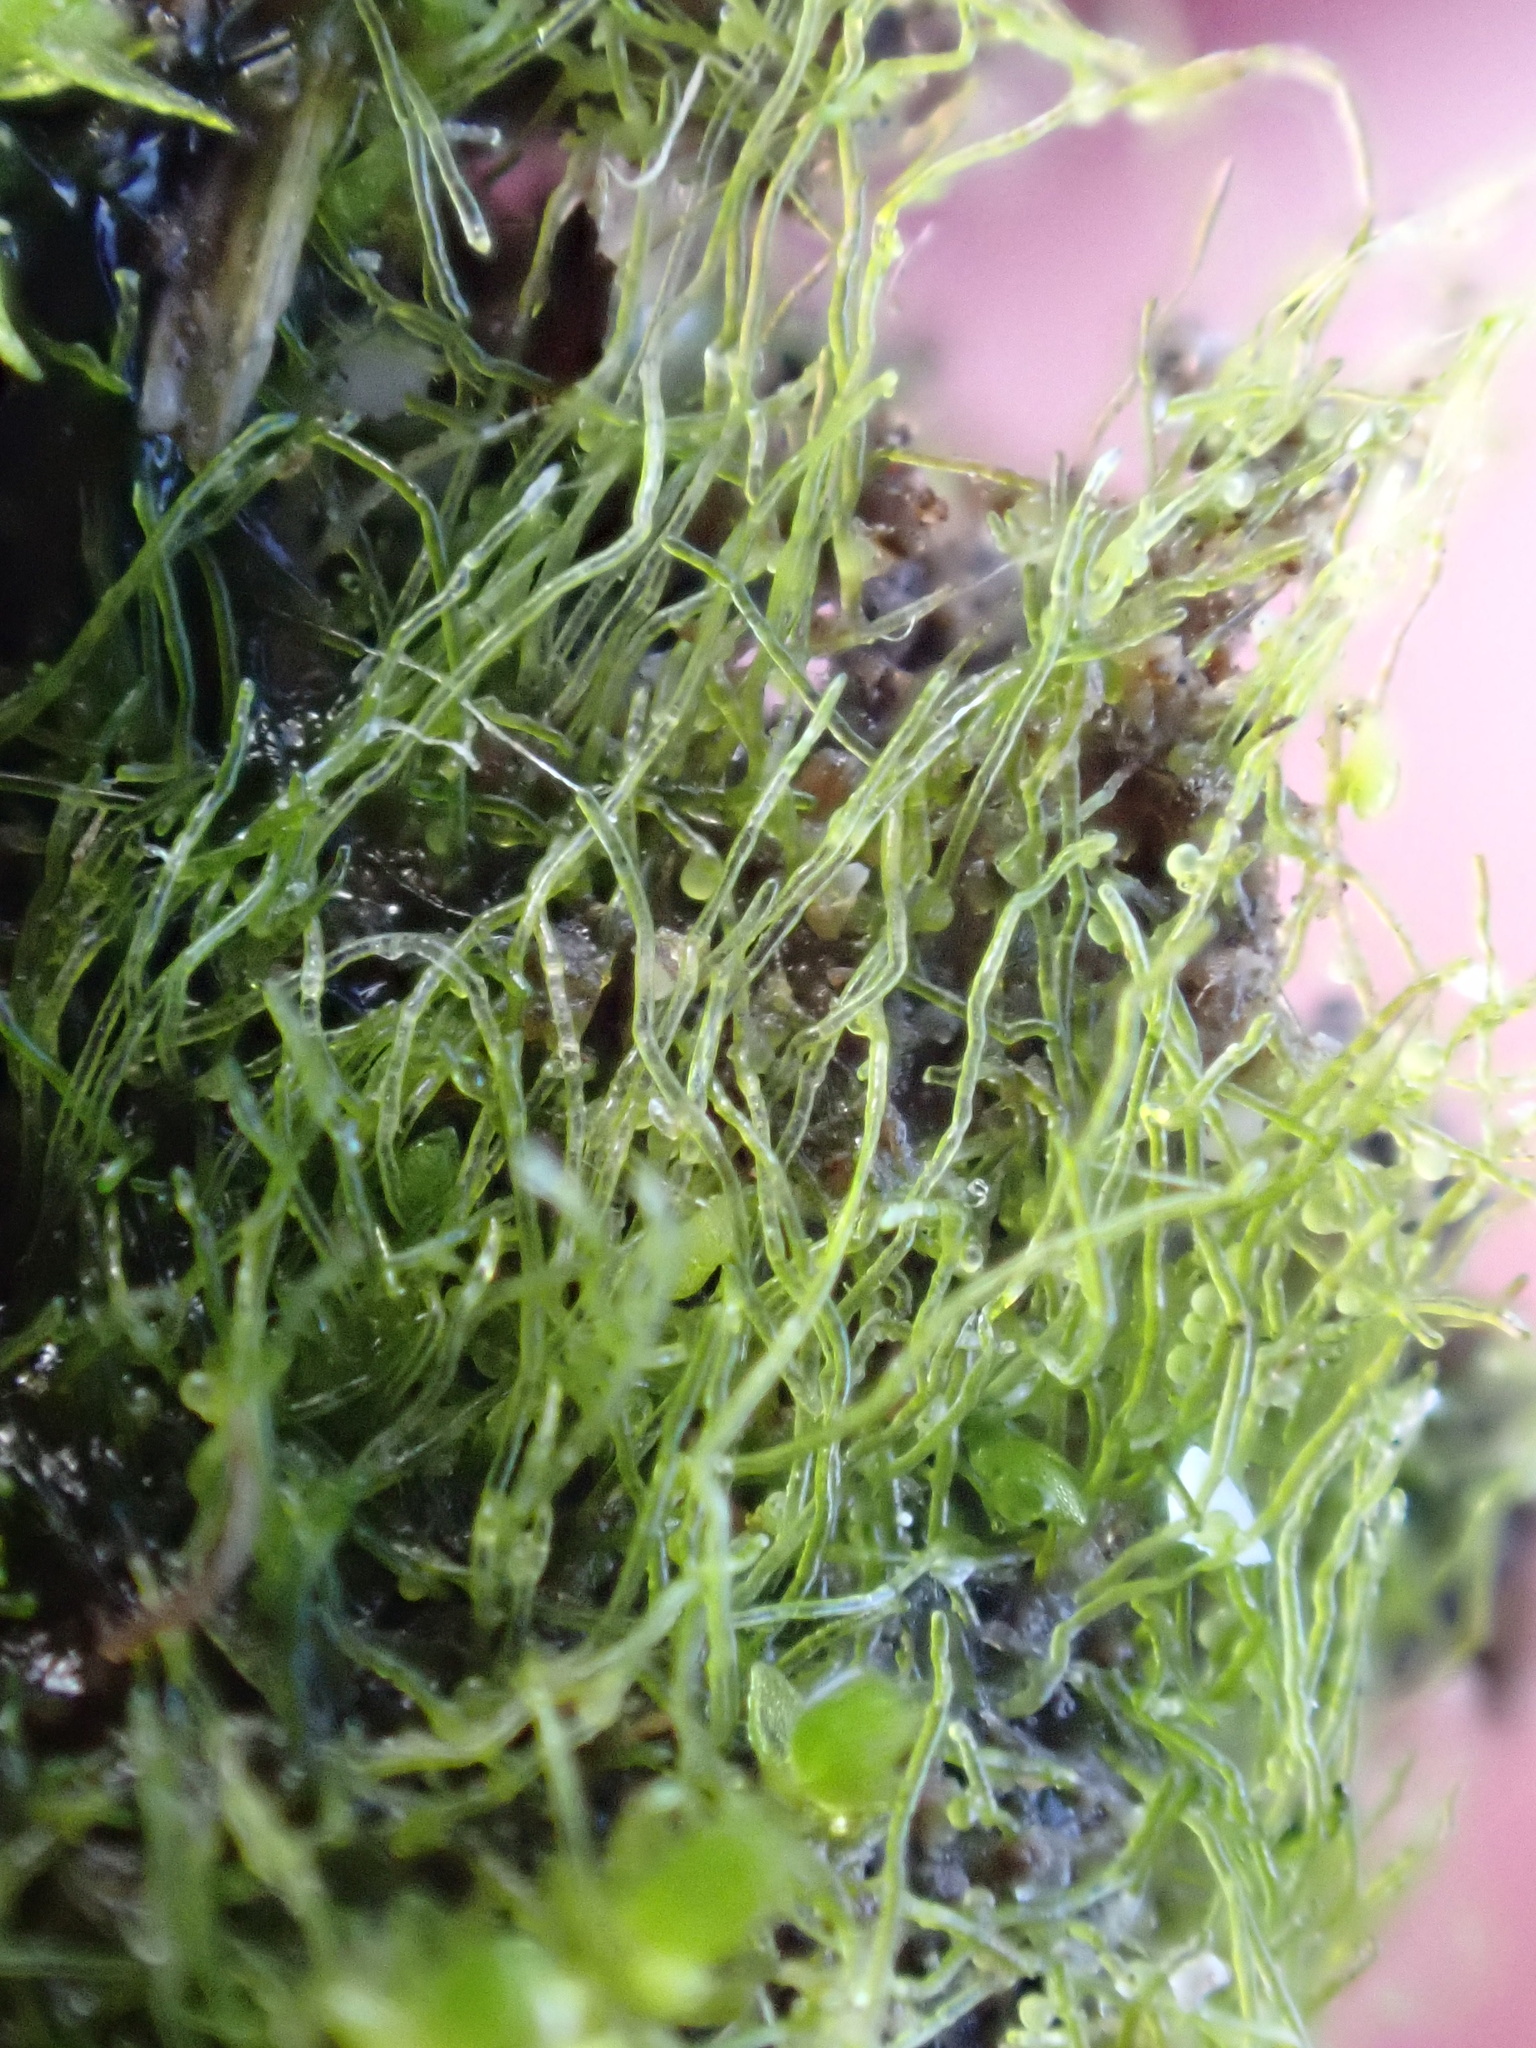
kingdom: Chromista
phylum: Ochrophyta
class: Xanthophyceae
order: Vaucheriales
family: Vaucheriaceae
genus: Vaucheria
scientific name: Vaucheria
